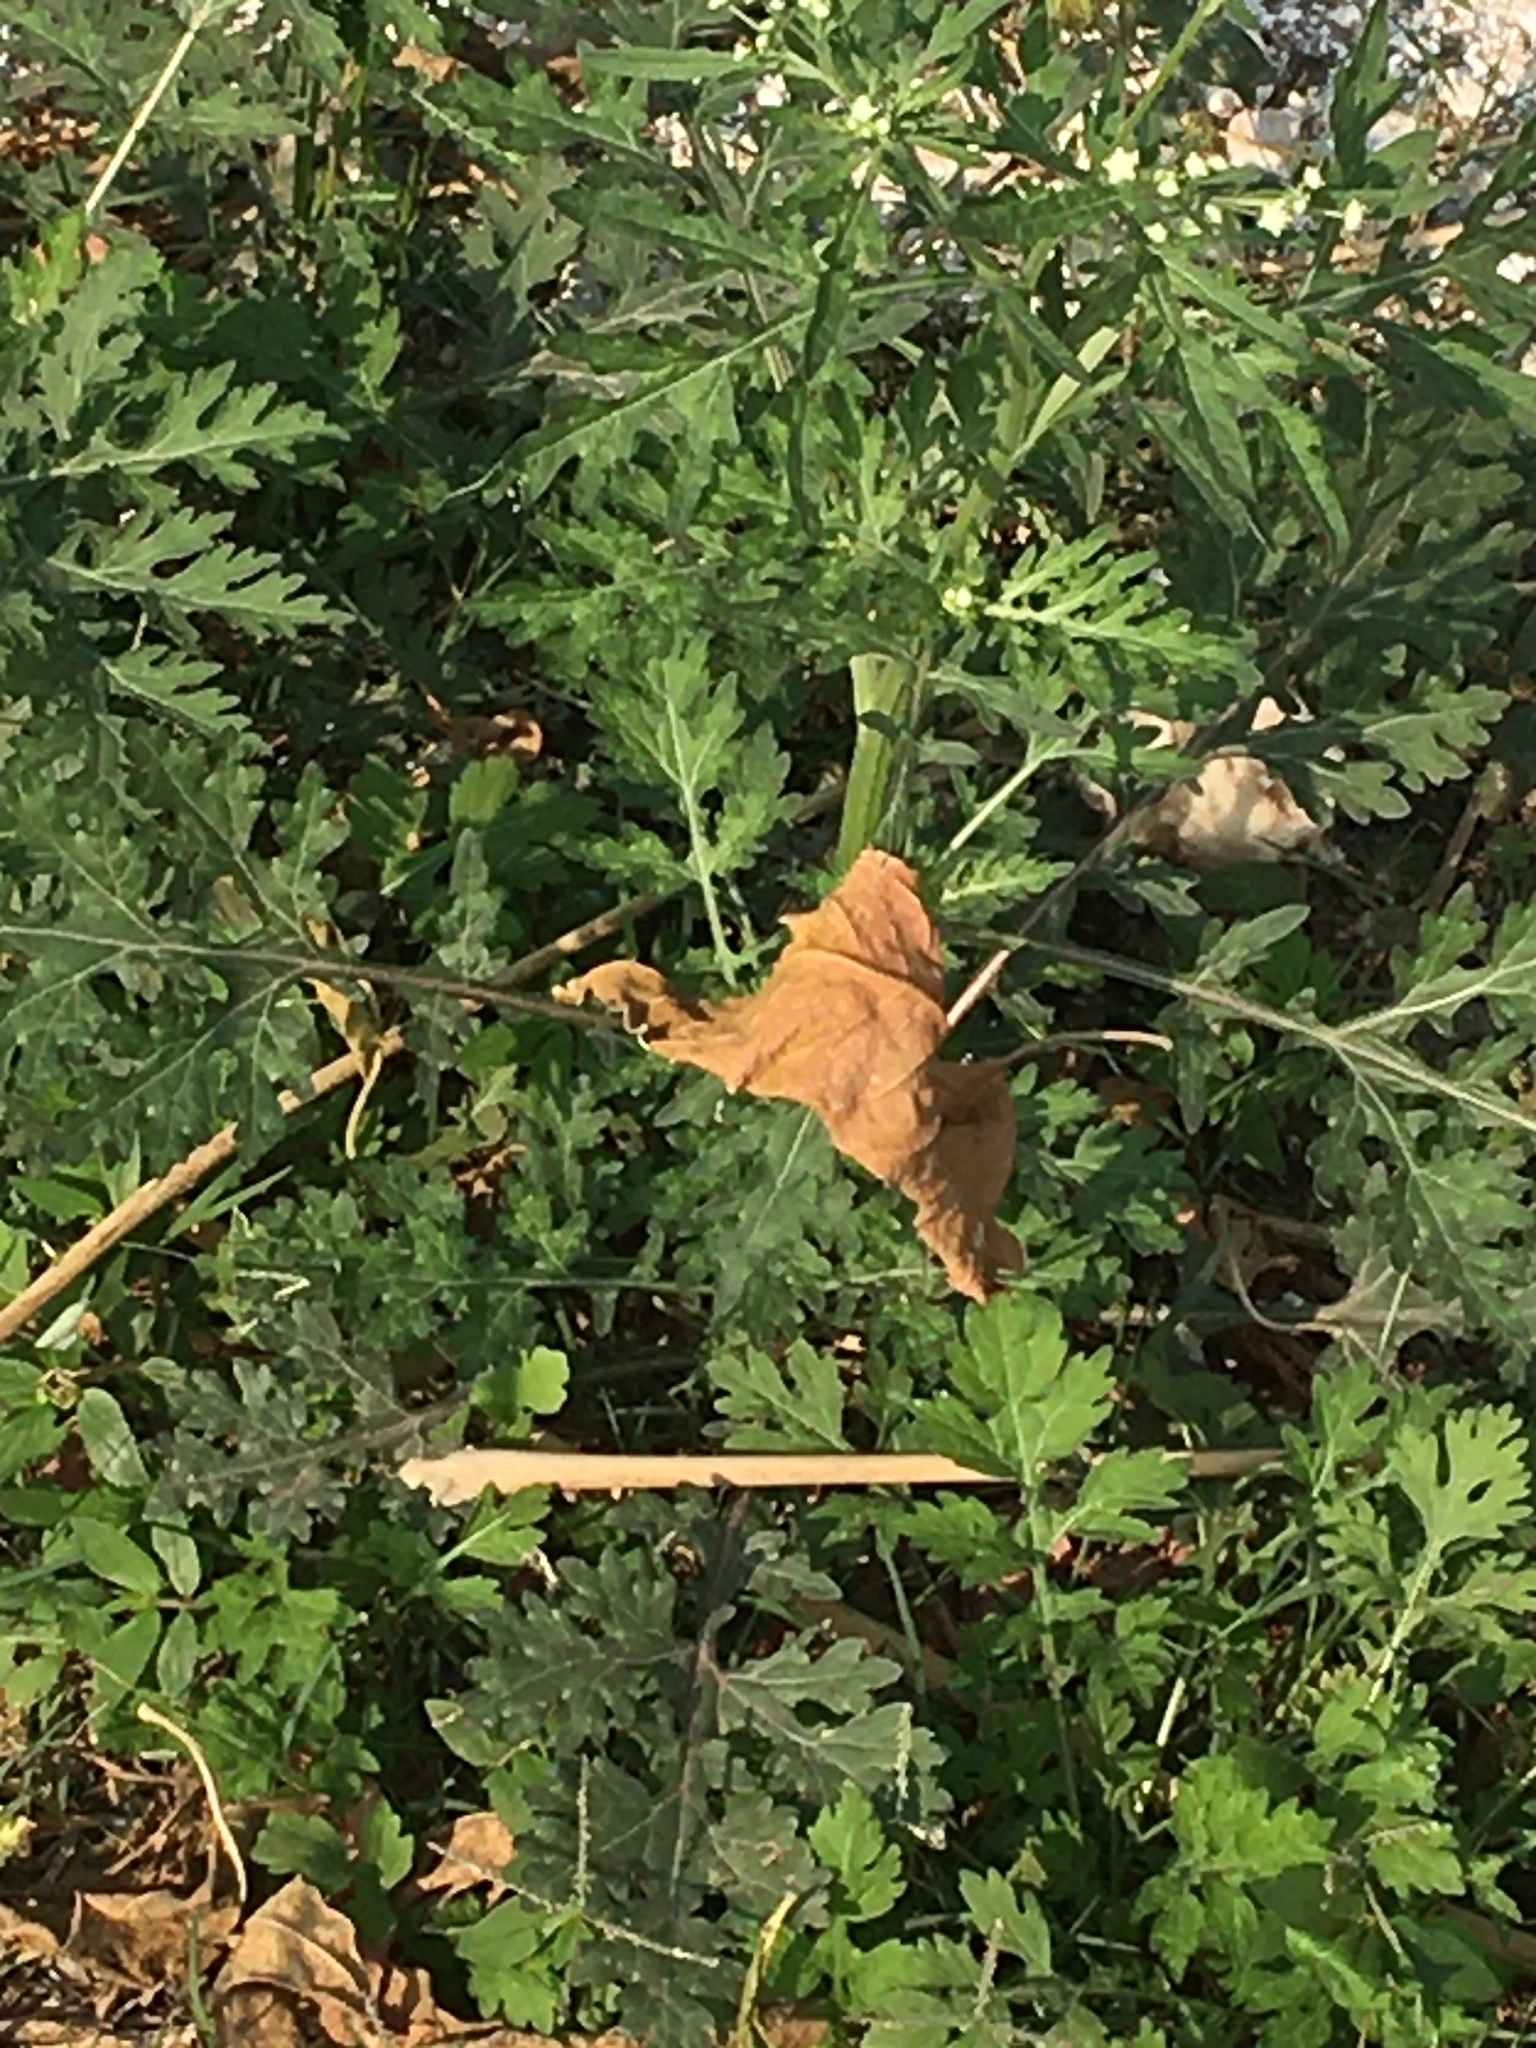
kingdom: Plantae
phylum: Tracheophyta
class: Magnoliopsida
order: Asterales
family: Asteraceae
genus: Parthenium
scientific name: Parthenium hysterophorus
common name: Santa maria feverfew
